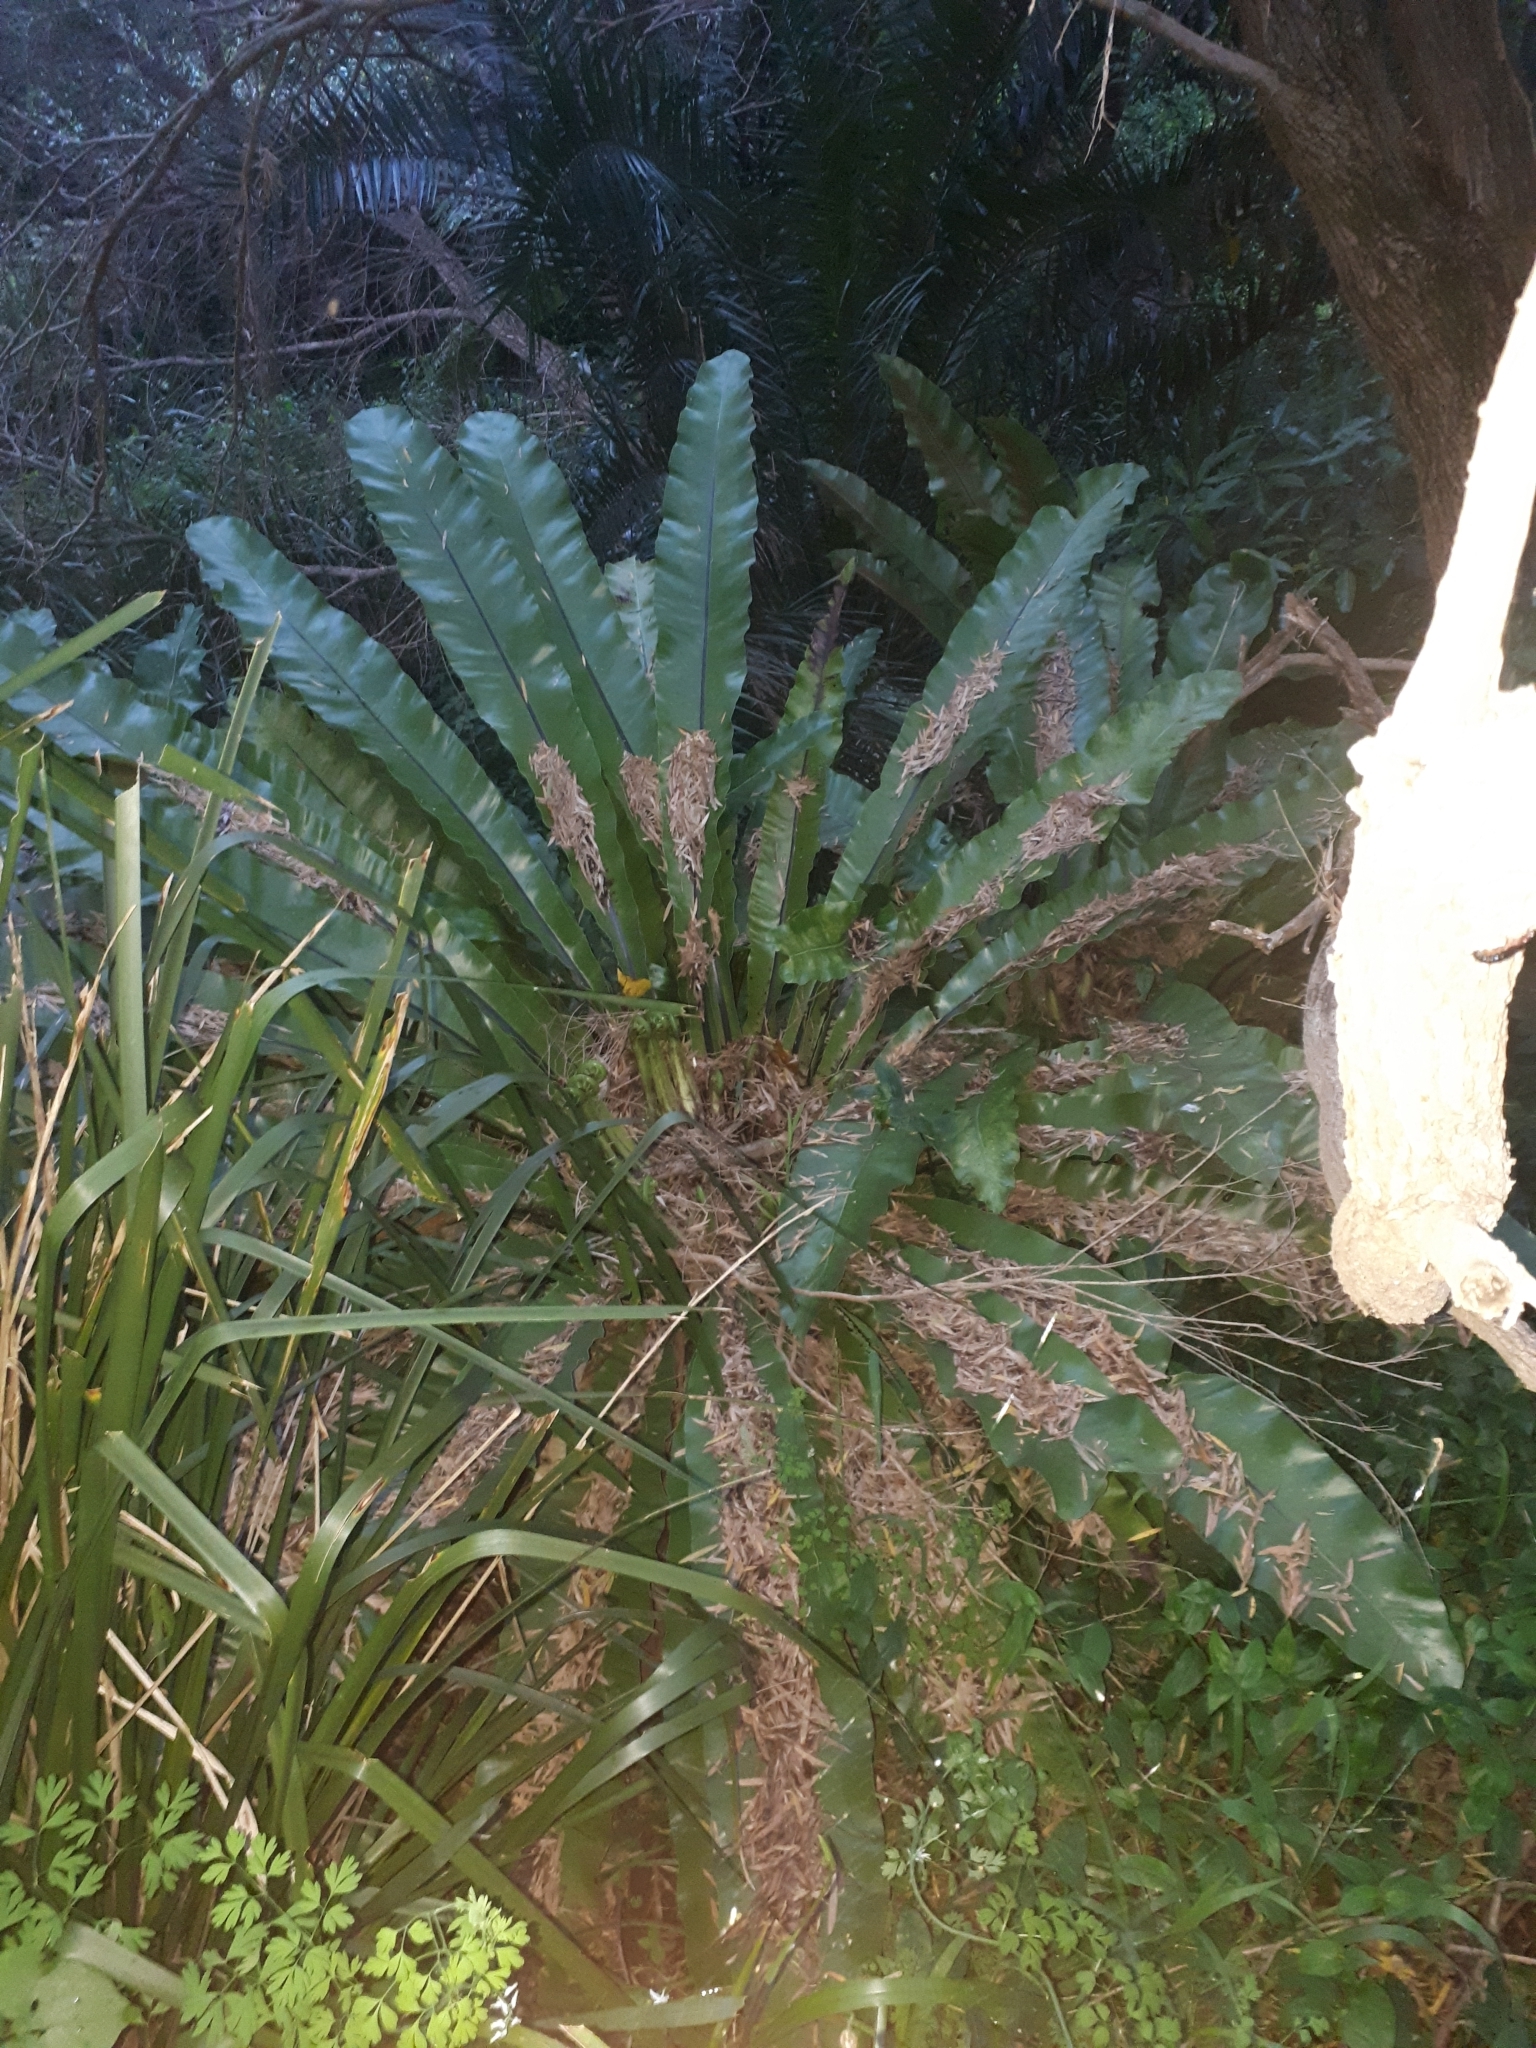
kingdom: Plantae
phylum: Tracheophyta
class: Polypodiopsida
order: Polypodiales
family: Aspleniaceae
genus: Asplenium
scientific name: Asplenium australasicum
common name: Bird's-nest fern
